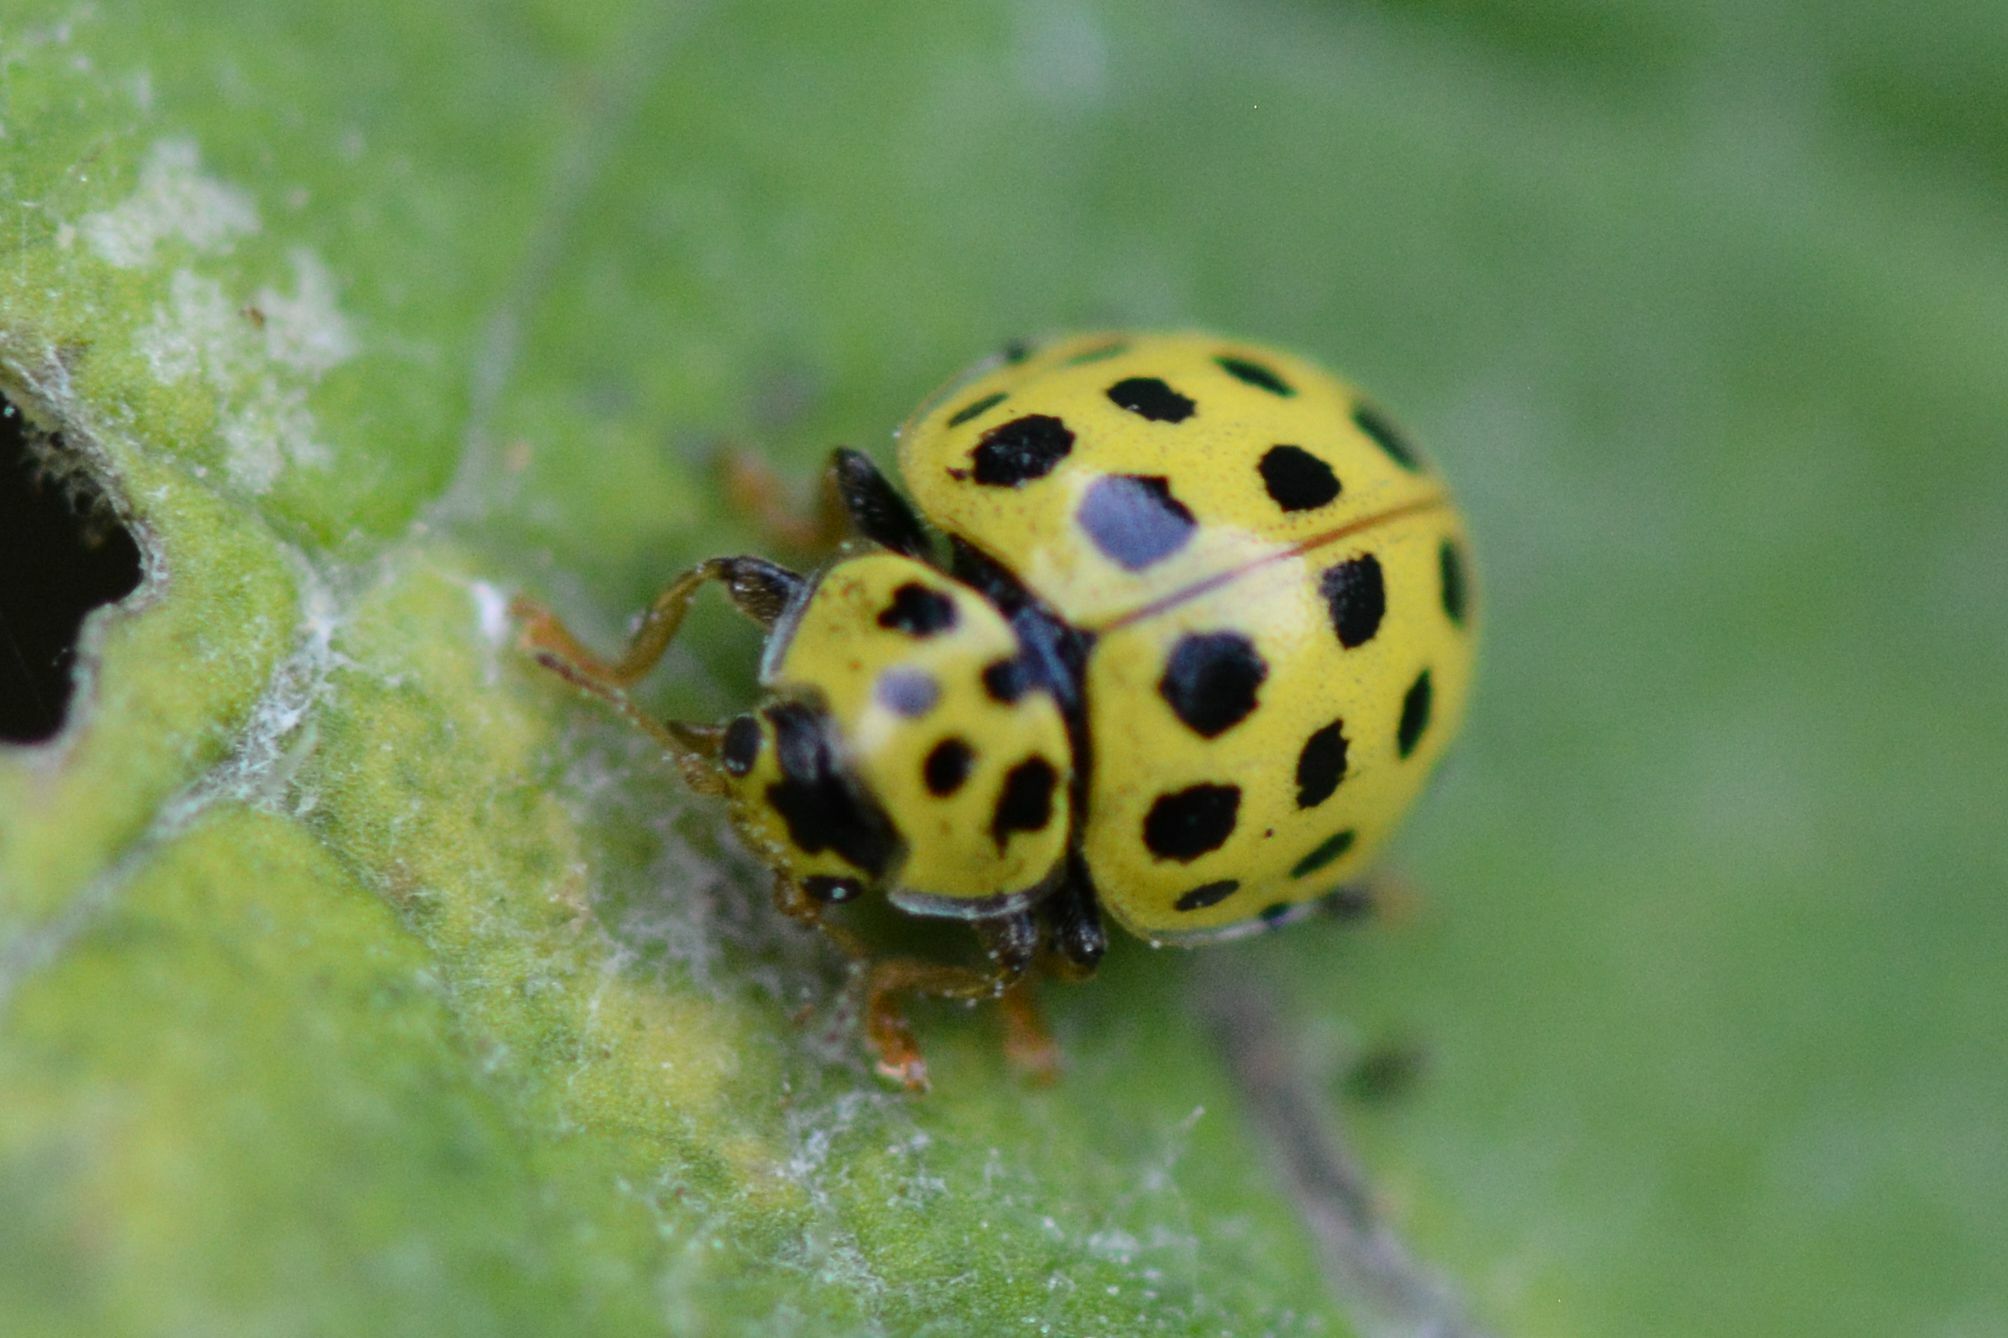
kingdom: Animalia
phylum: Arthropoda
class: Insecta
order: Coleoptera
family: Coccinellidae
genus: Psyllobora
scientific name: Psyllobora vigintiduopunctata
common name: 22-spot ladybird
